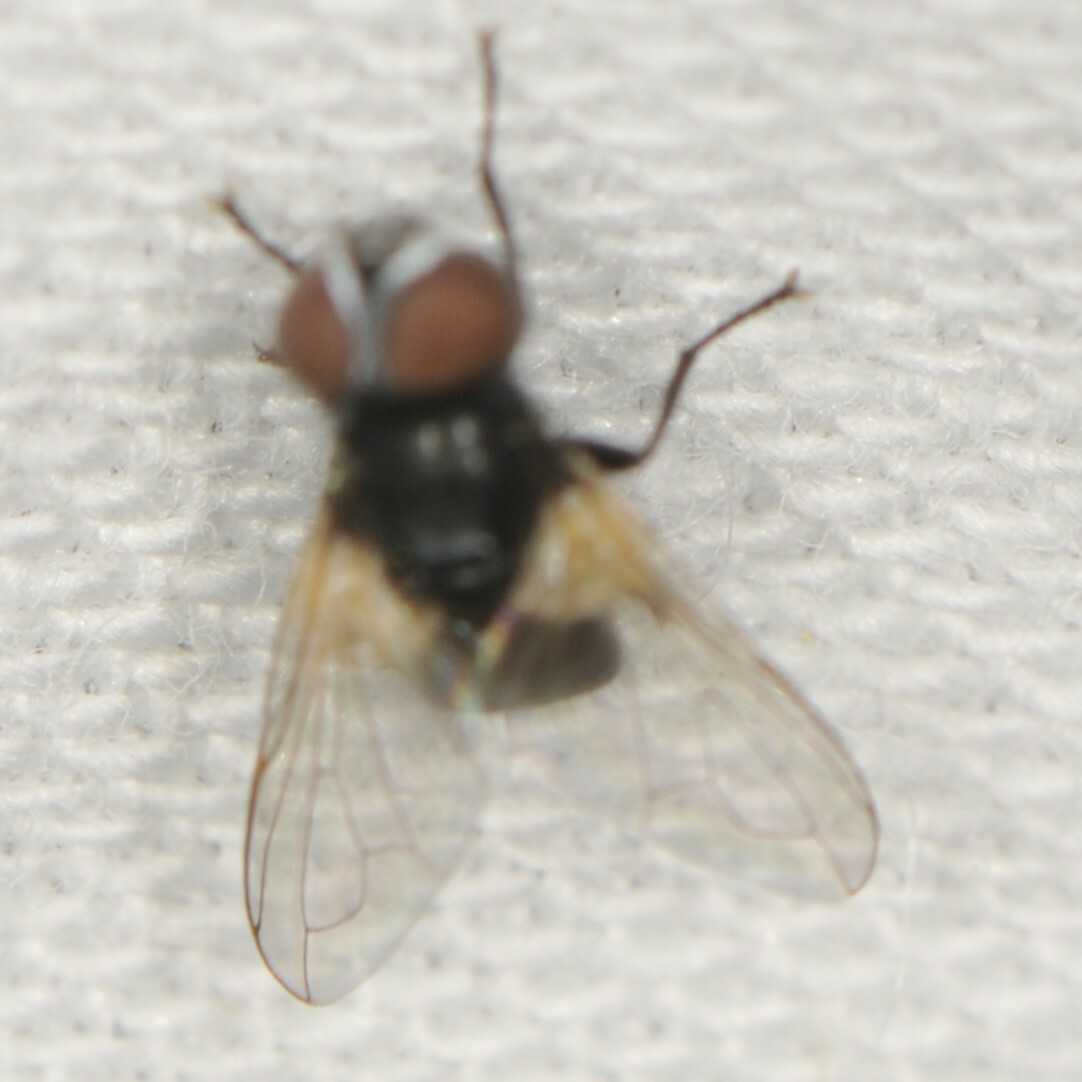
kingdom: Animalia
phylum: Arthropoda
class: Insecta
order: Diptera
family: Tachinidae
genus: Phasia
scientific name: Phasia
